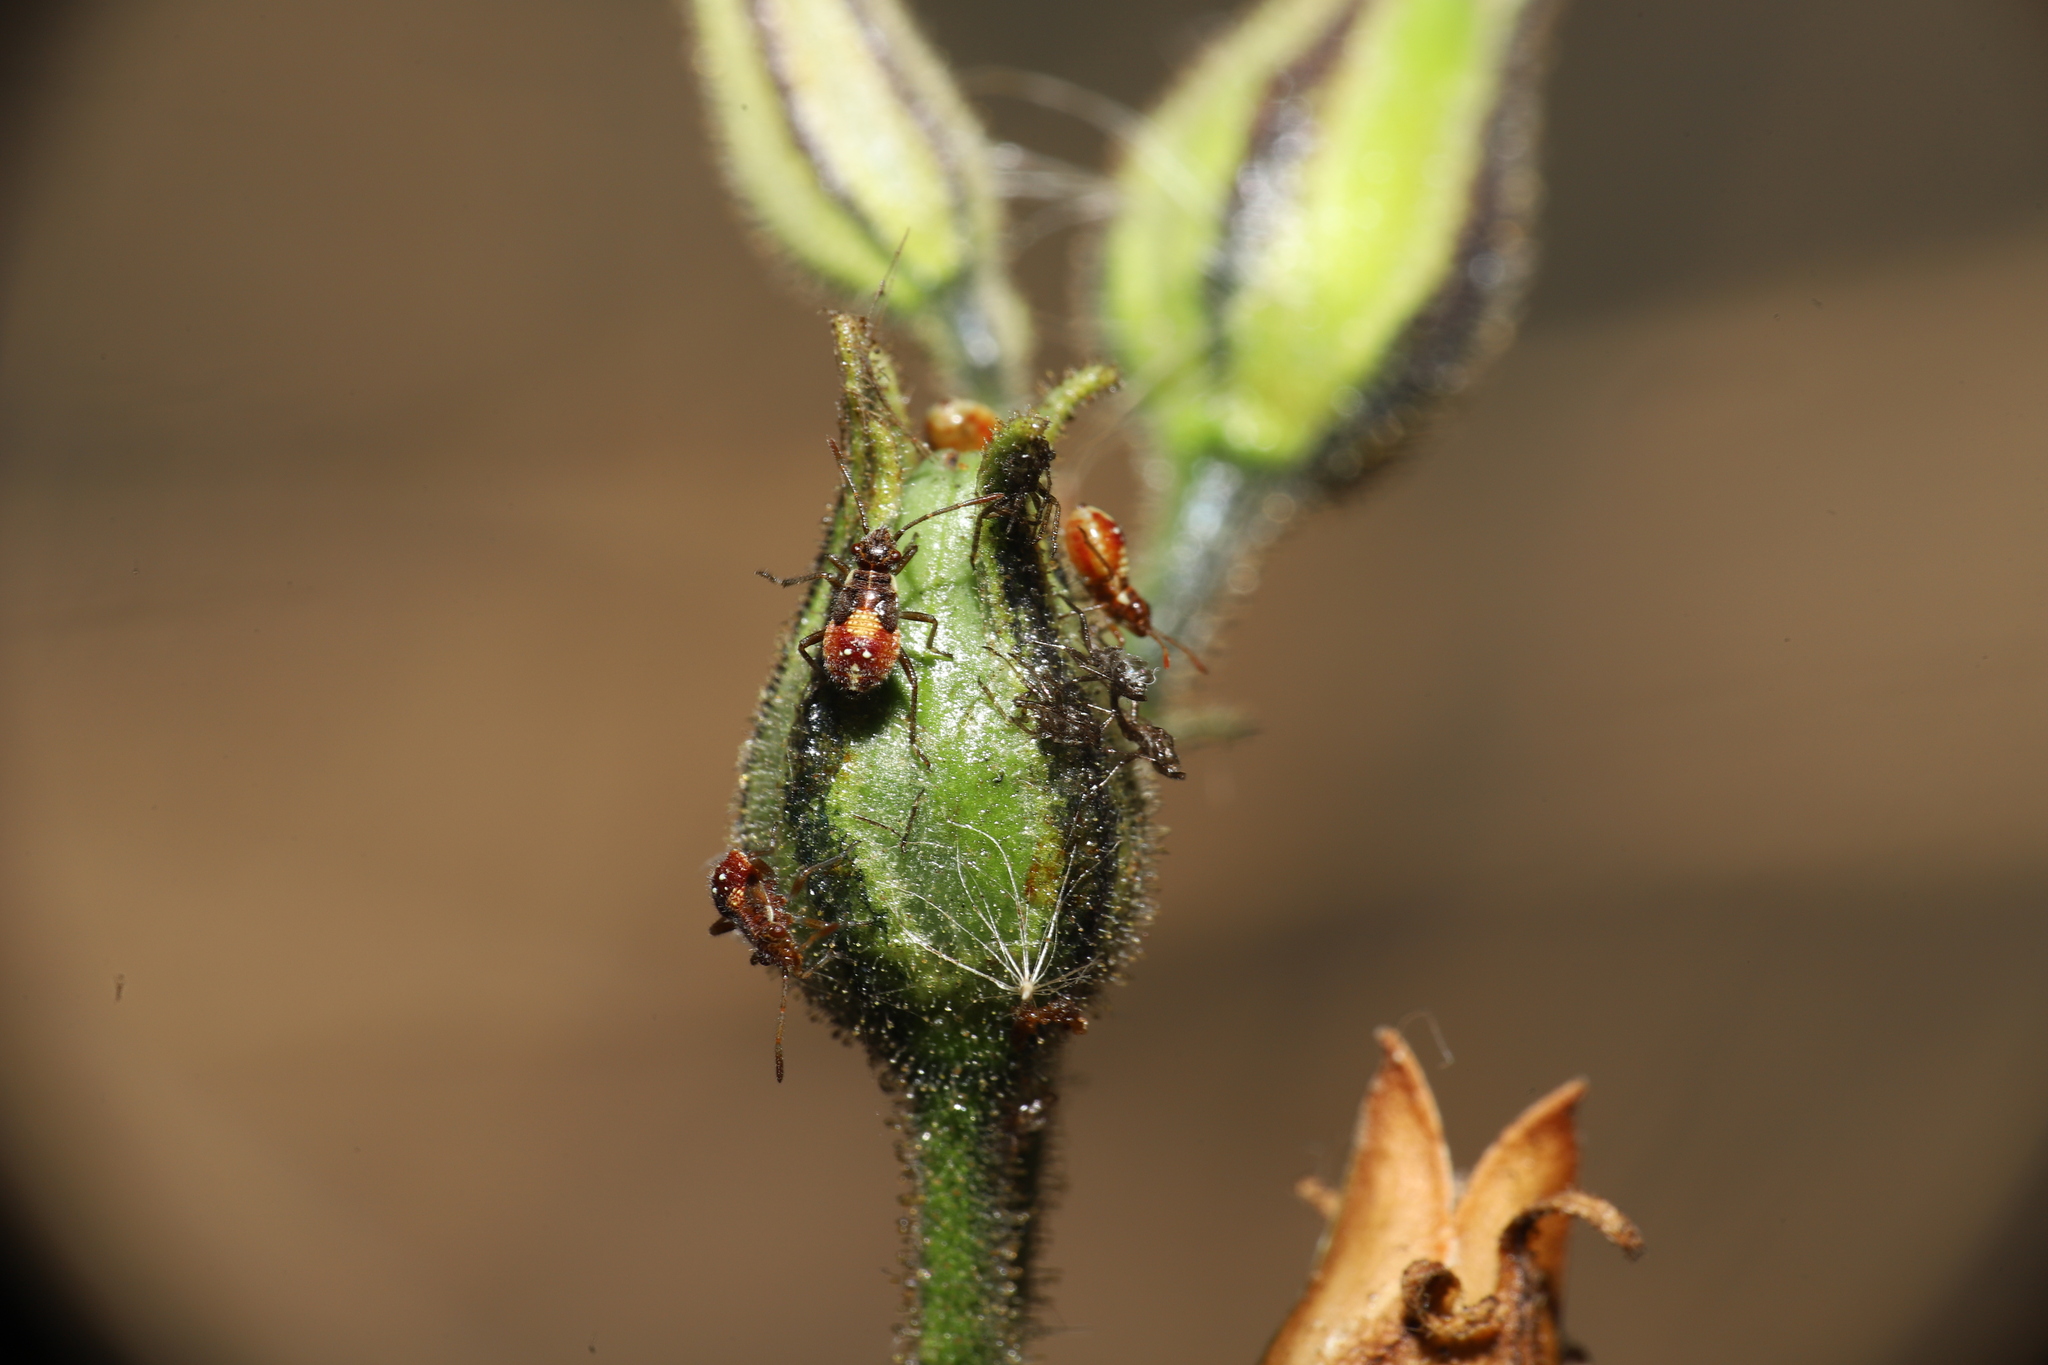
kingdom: Animalia
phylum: Arthropoda
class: Insecta
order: Hemiptera
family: Rhopalidae
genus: Liorhyssus
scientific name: Liorhyssus hyalinus
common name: Scentless plant bug
